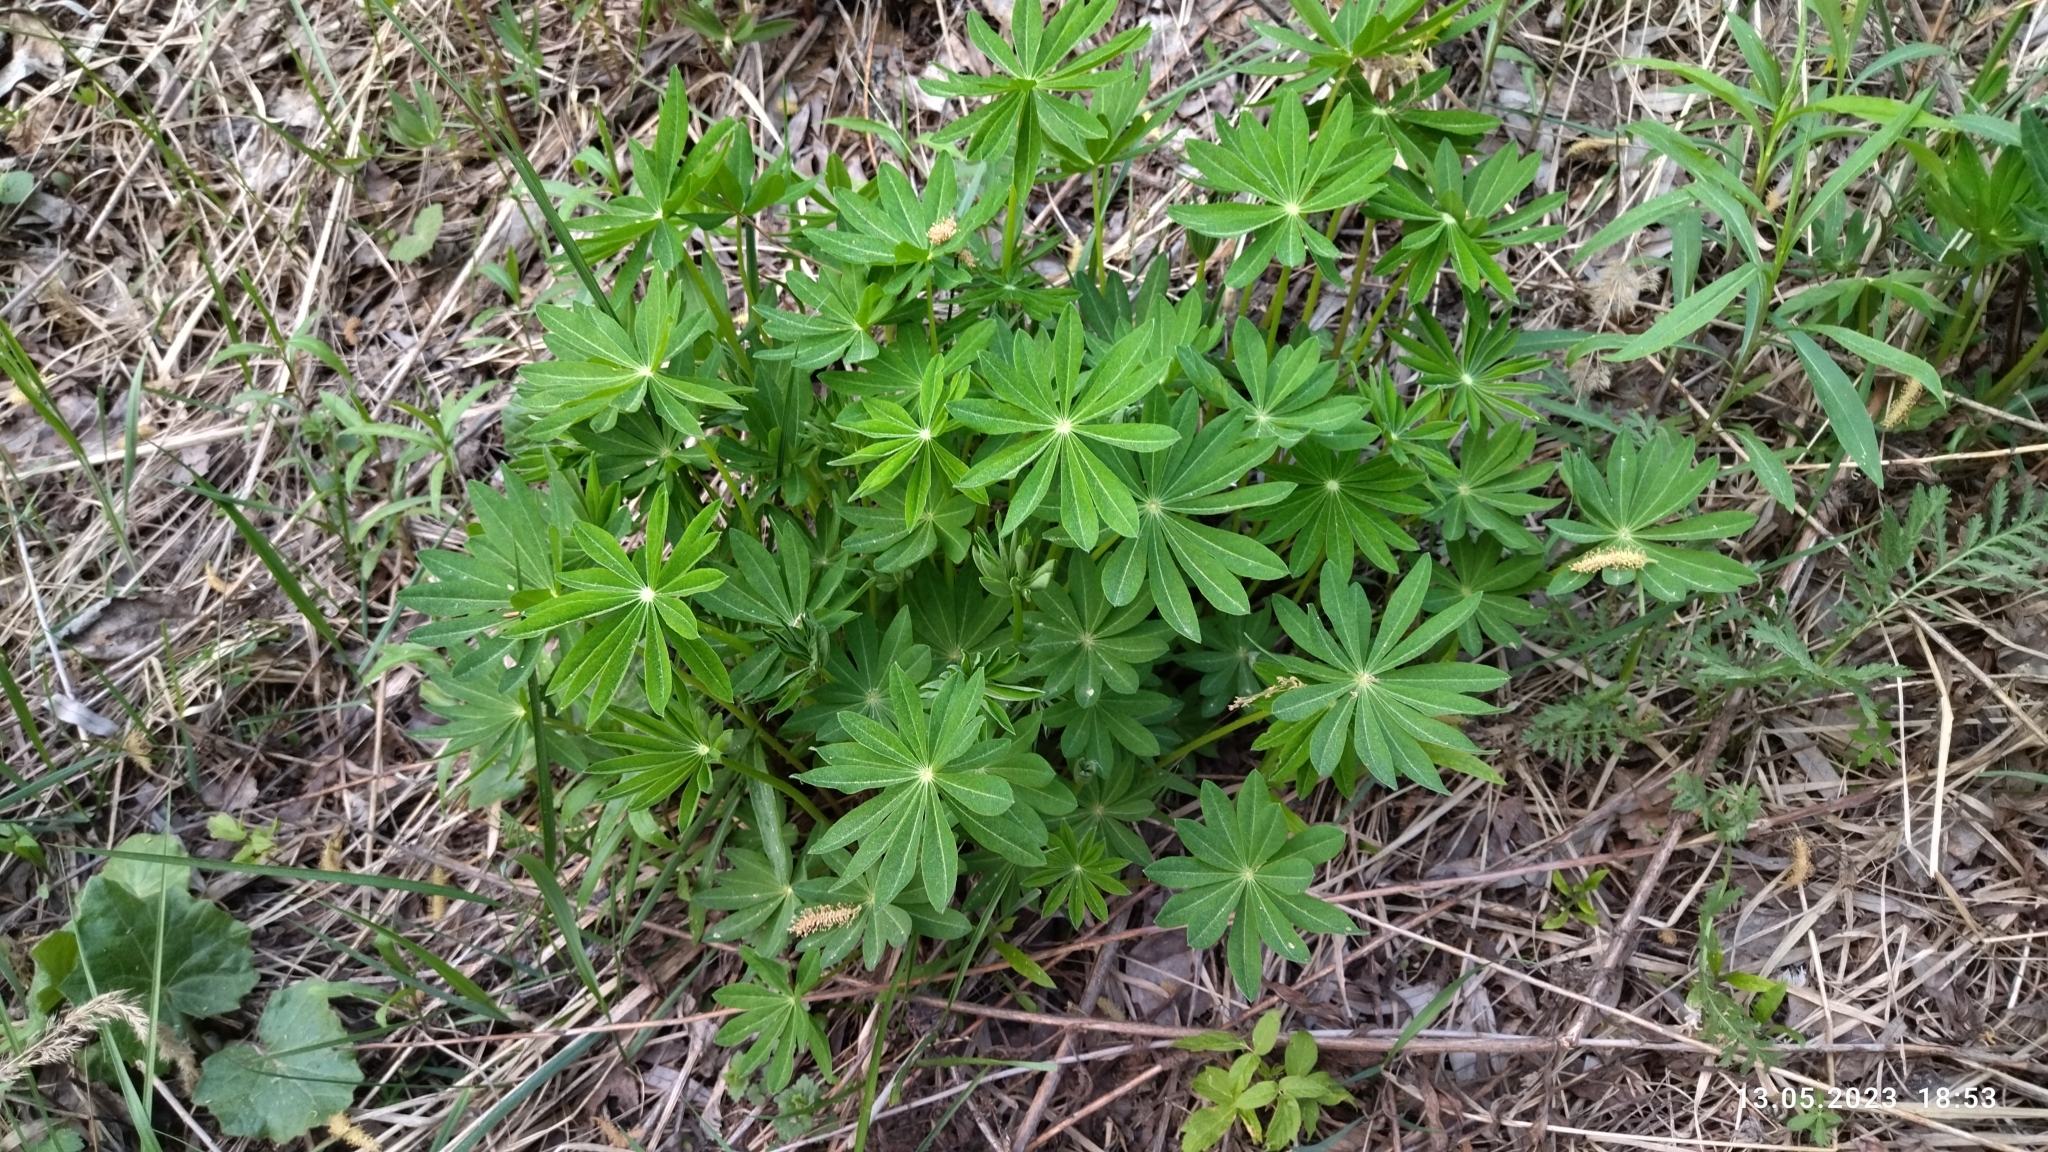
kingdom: Plantae
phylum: Tracheophyta
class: Magnoliopsida
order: Fabales
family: Fabaceae
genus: Lupinus
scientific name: Lupinus polyphyllus
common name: Garden lupin
